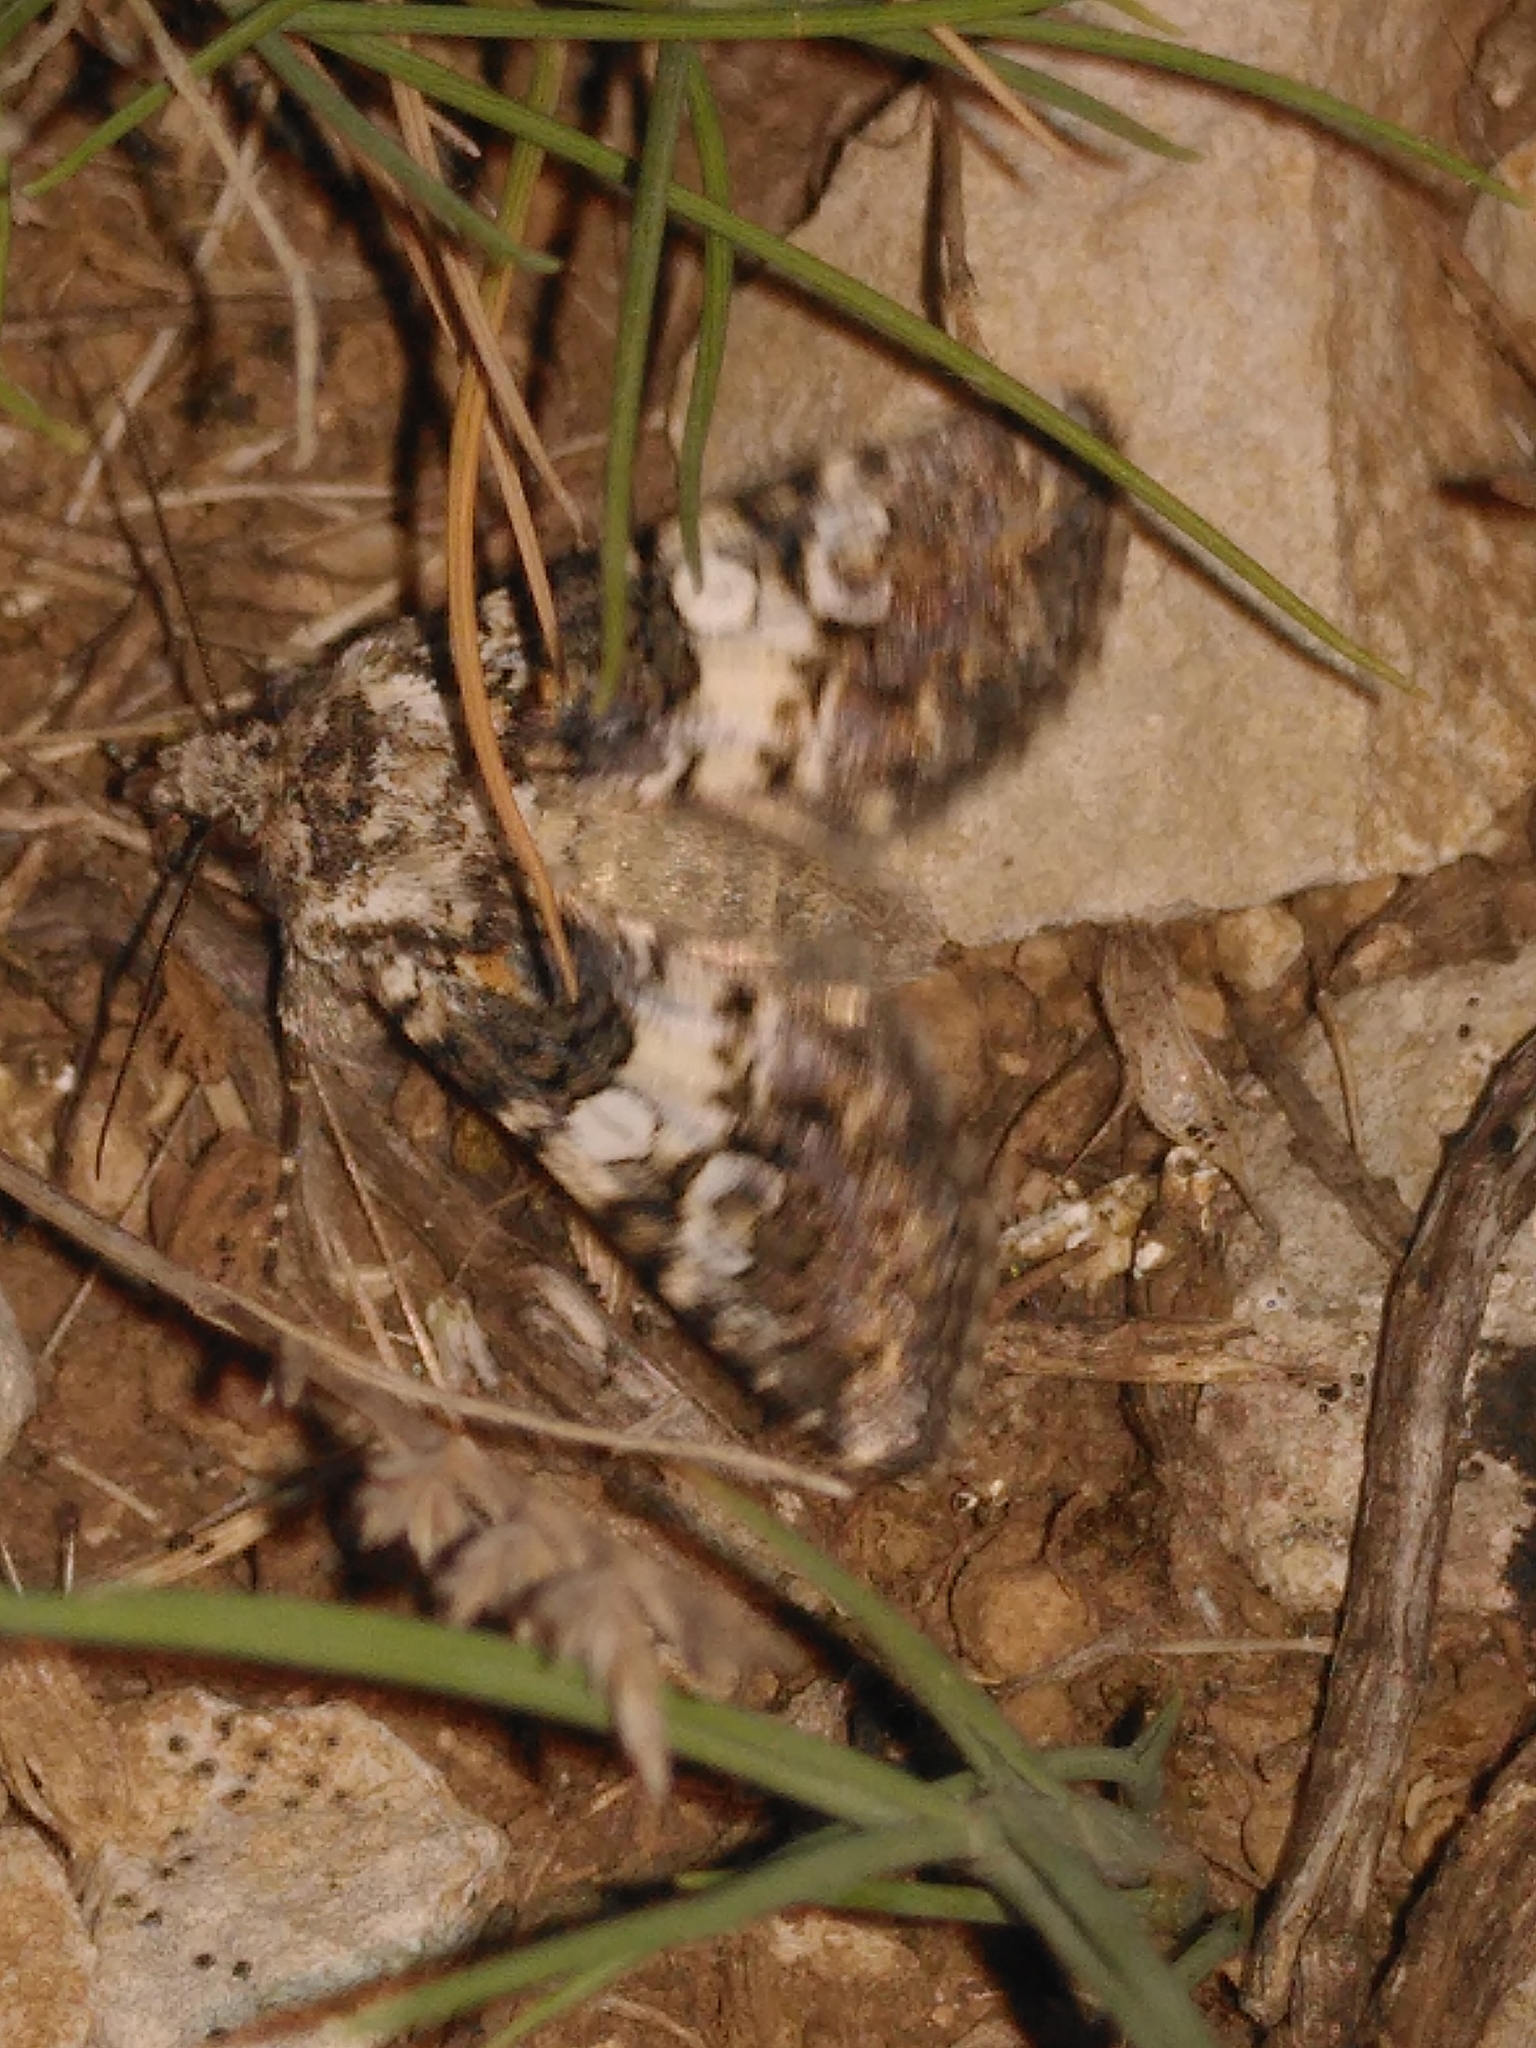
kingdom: Animalia
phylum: Arthropoda
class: Insecta
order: Lepidoptera
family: Noctuidae
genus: Hadena
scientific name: Hadena compta
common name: Varied coronet
